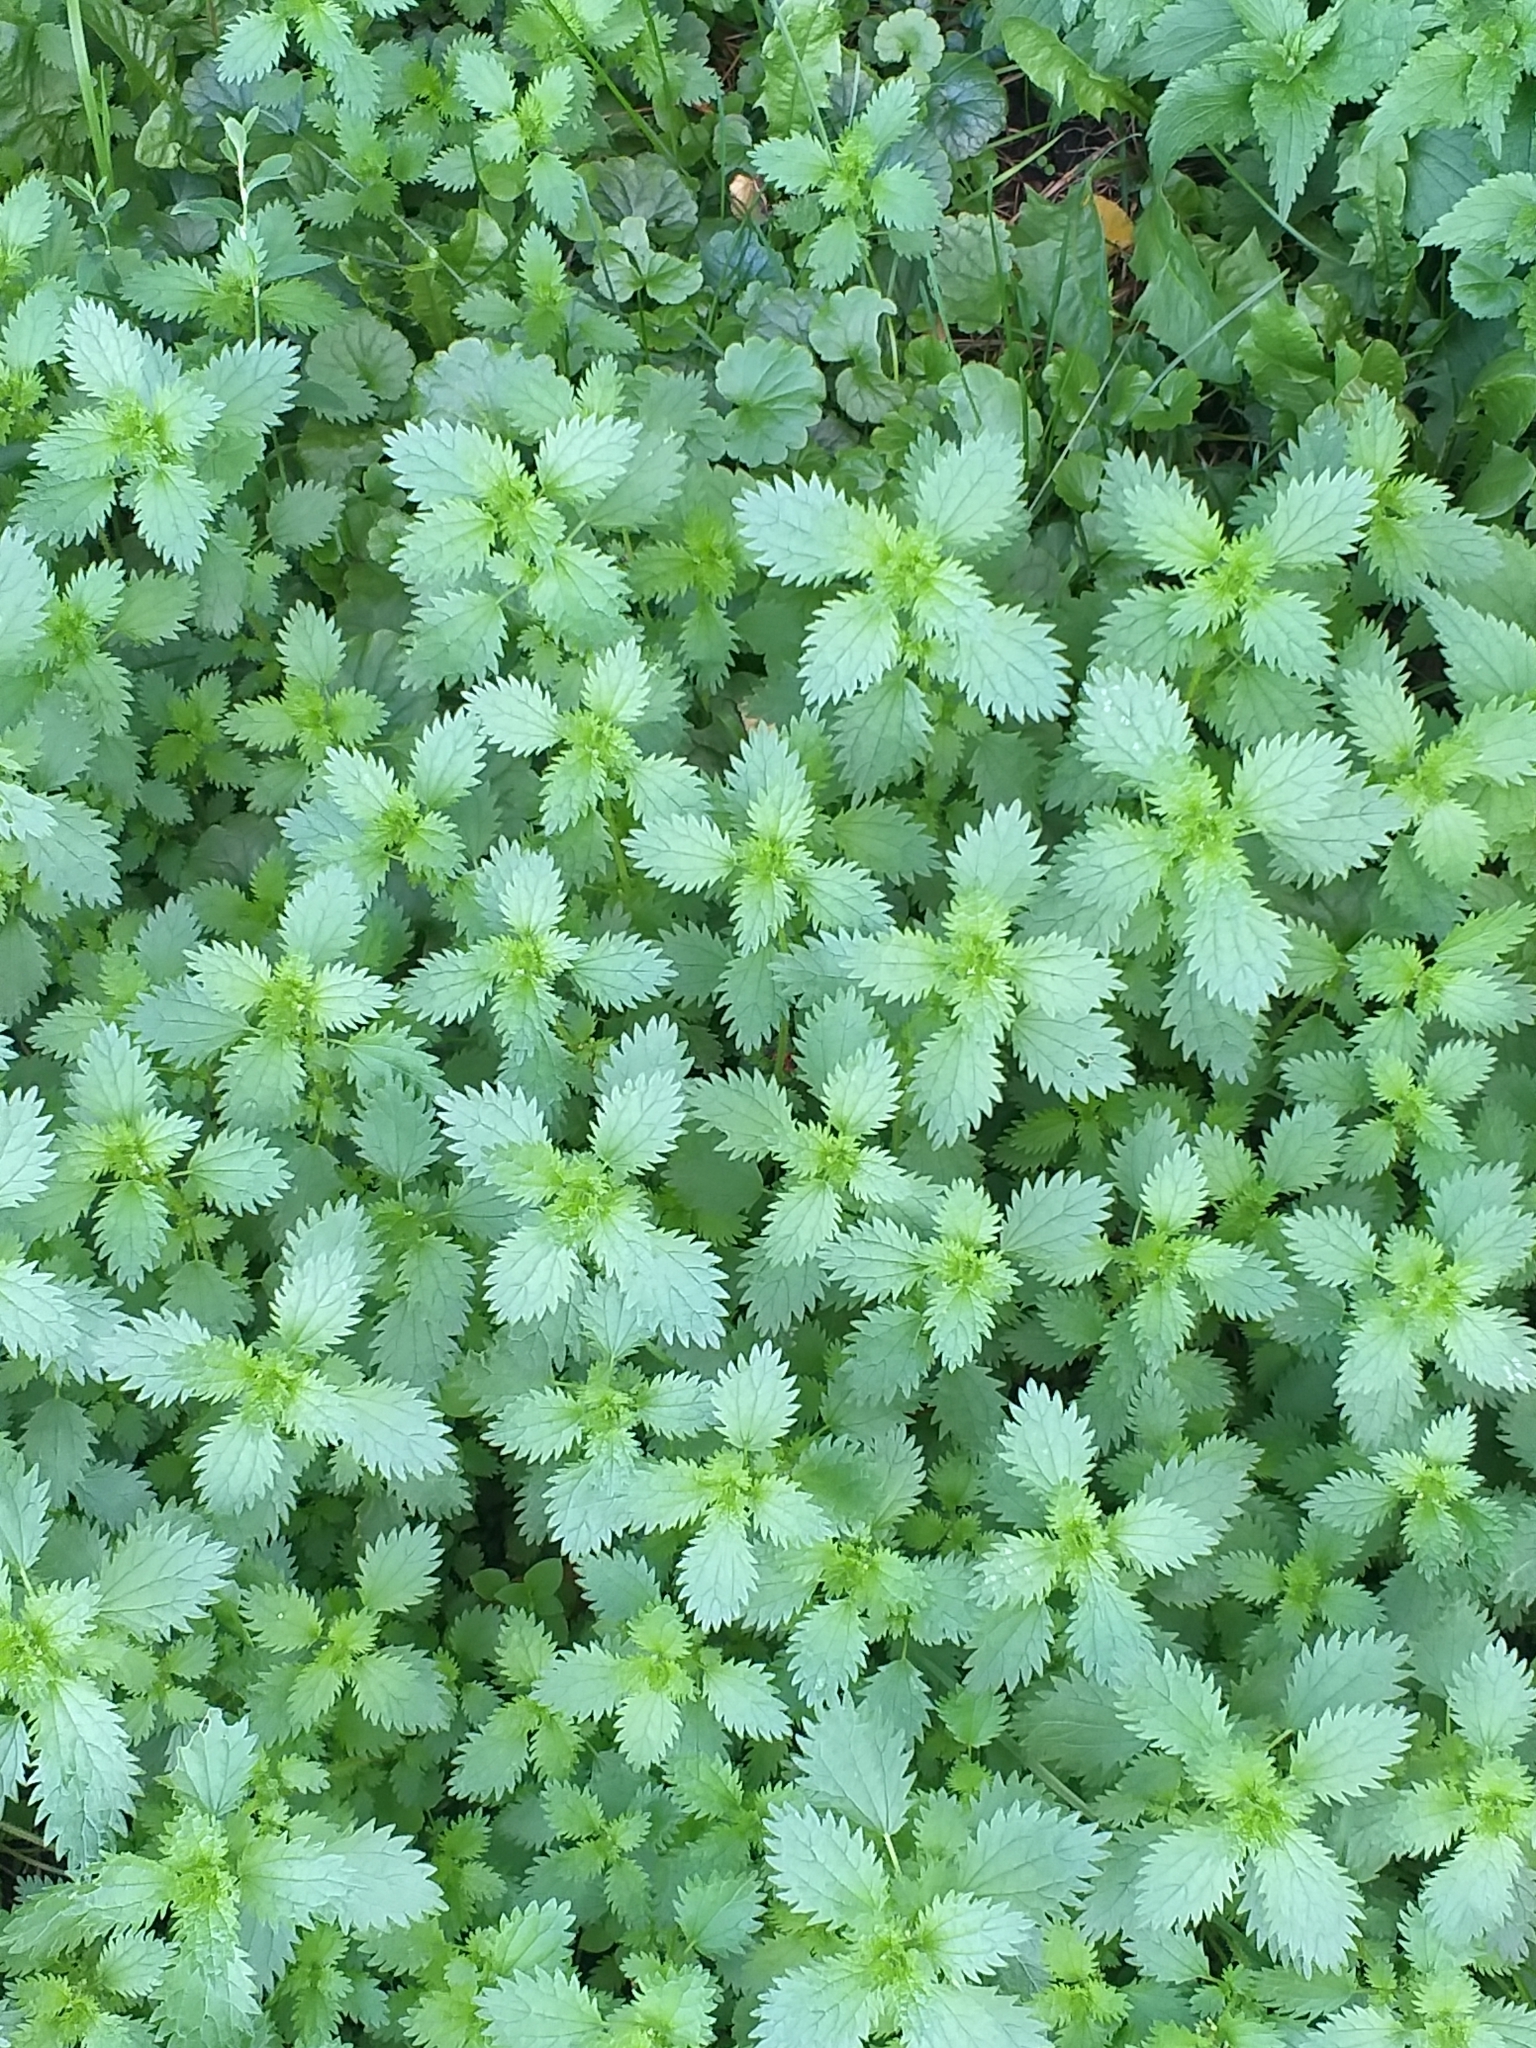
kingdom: Plantae
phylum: Tracheophyta
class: Magnoliopsida
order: Rosales
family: Urticaceae
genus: Urtica
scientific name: Urtica urens
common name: Dwarf nettle
